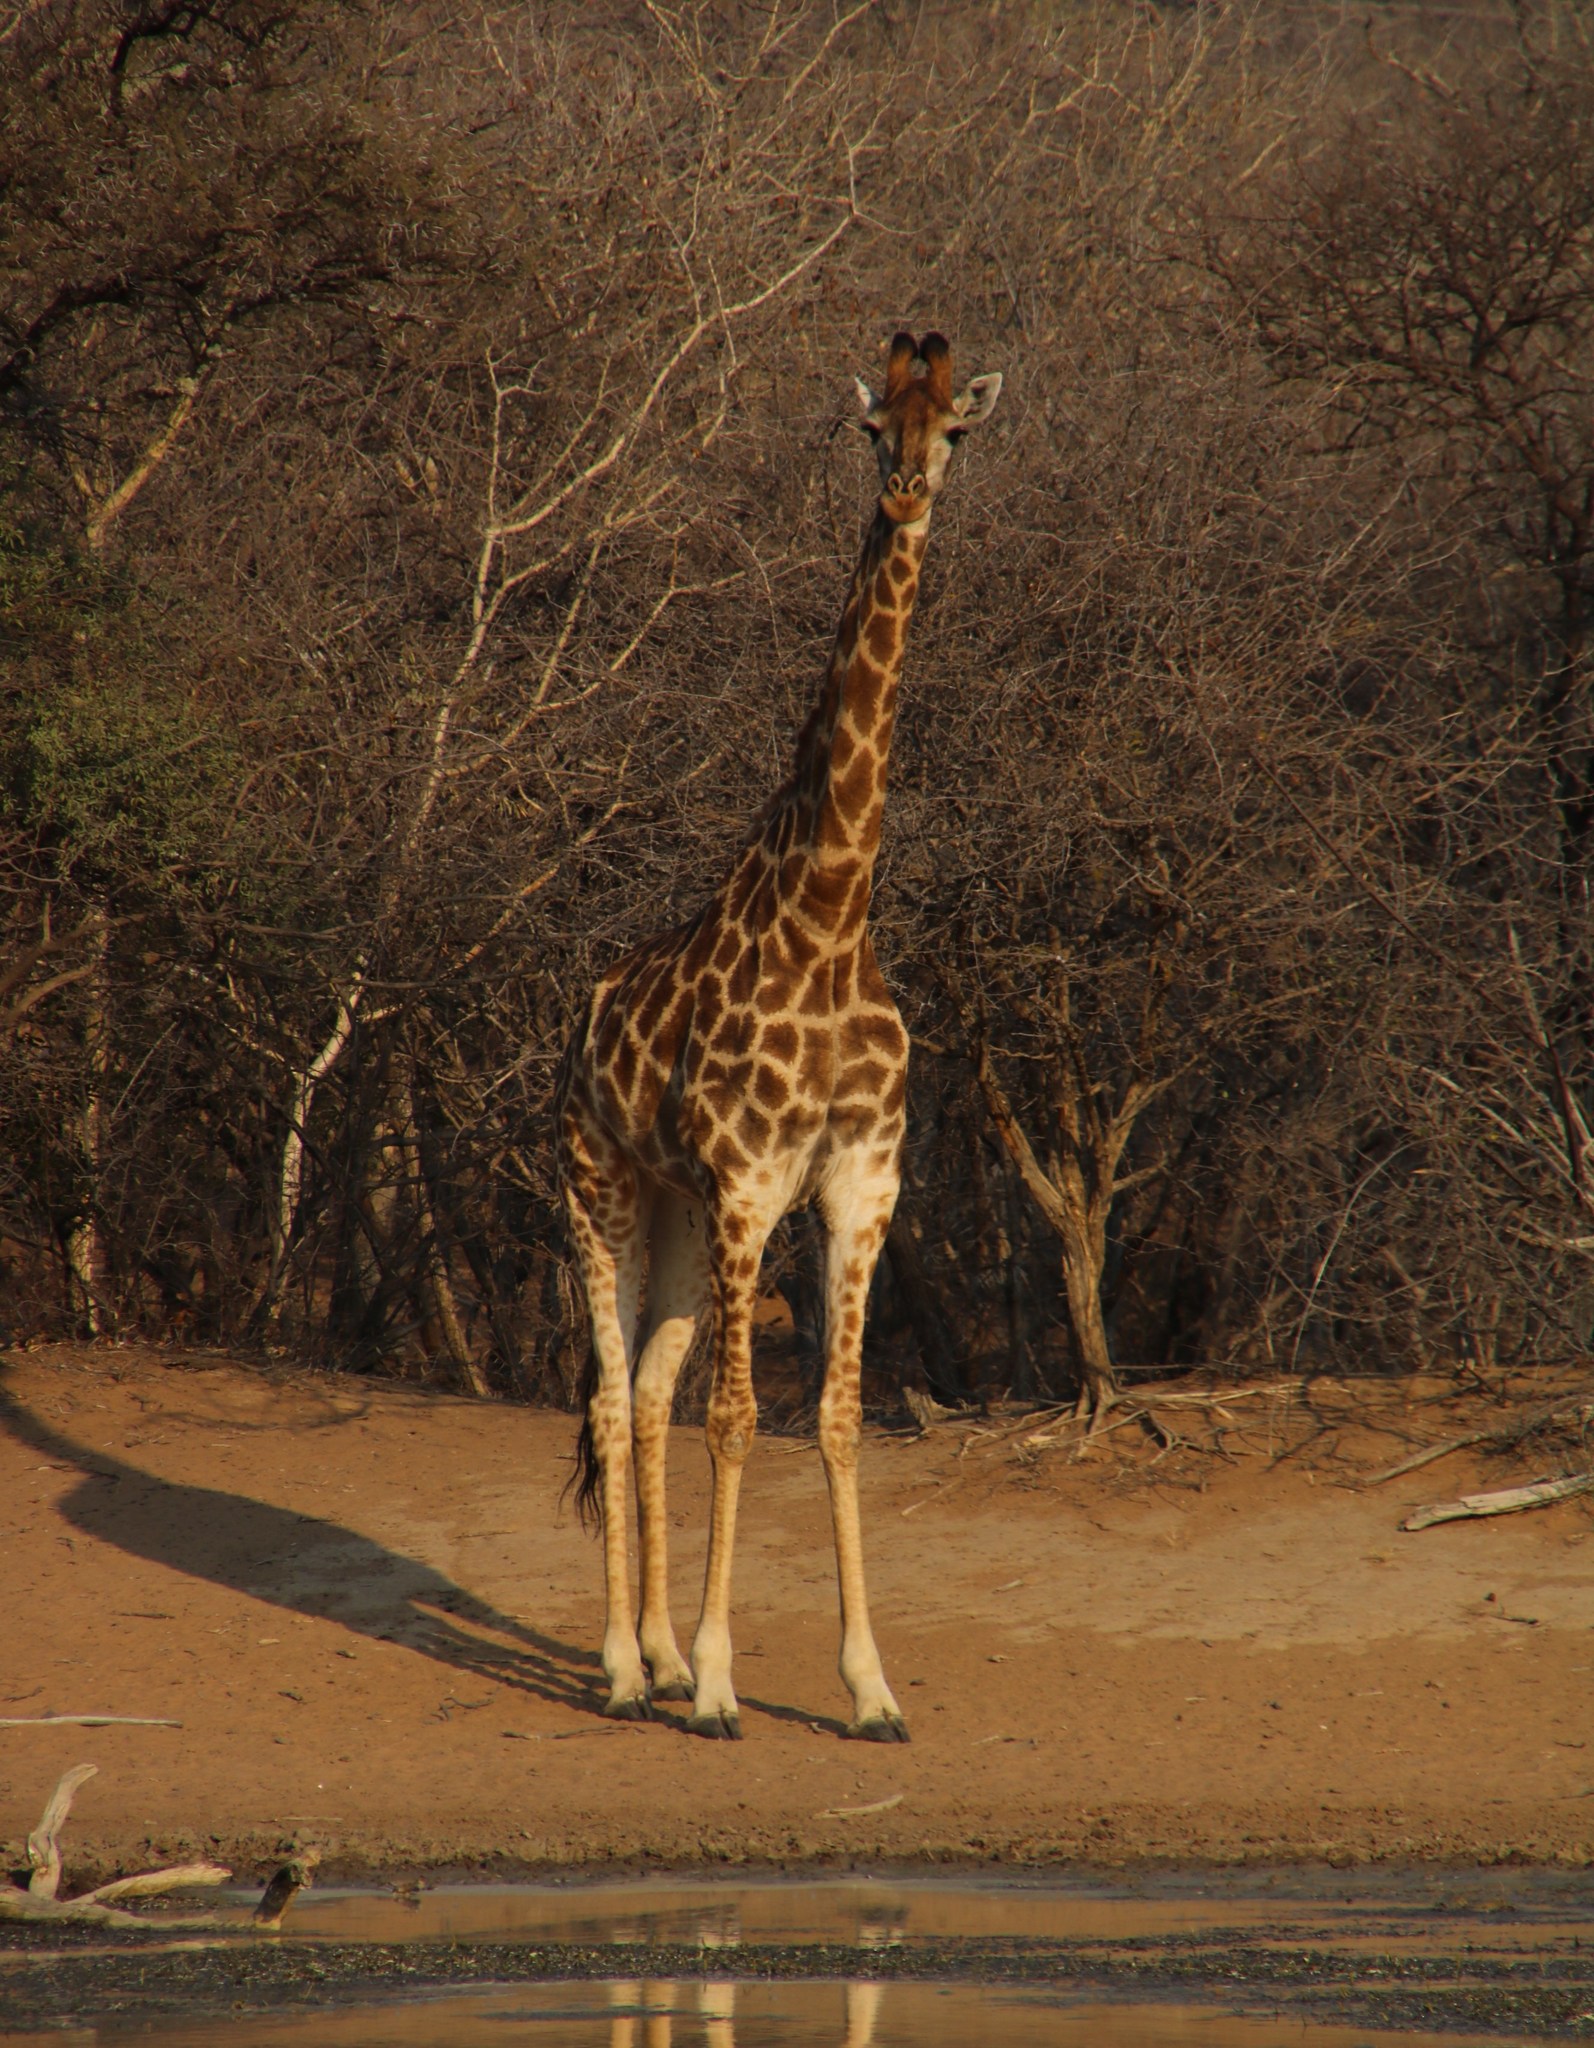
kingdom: Animalia
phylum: Chordata
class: Mammalia
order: Artiodactyla
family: Giraffidae
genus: Giraffa
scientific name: Giraffa giraffa
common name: Southern giraffe
